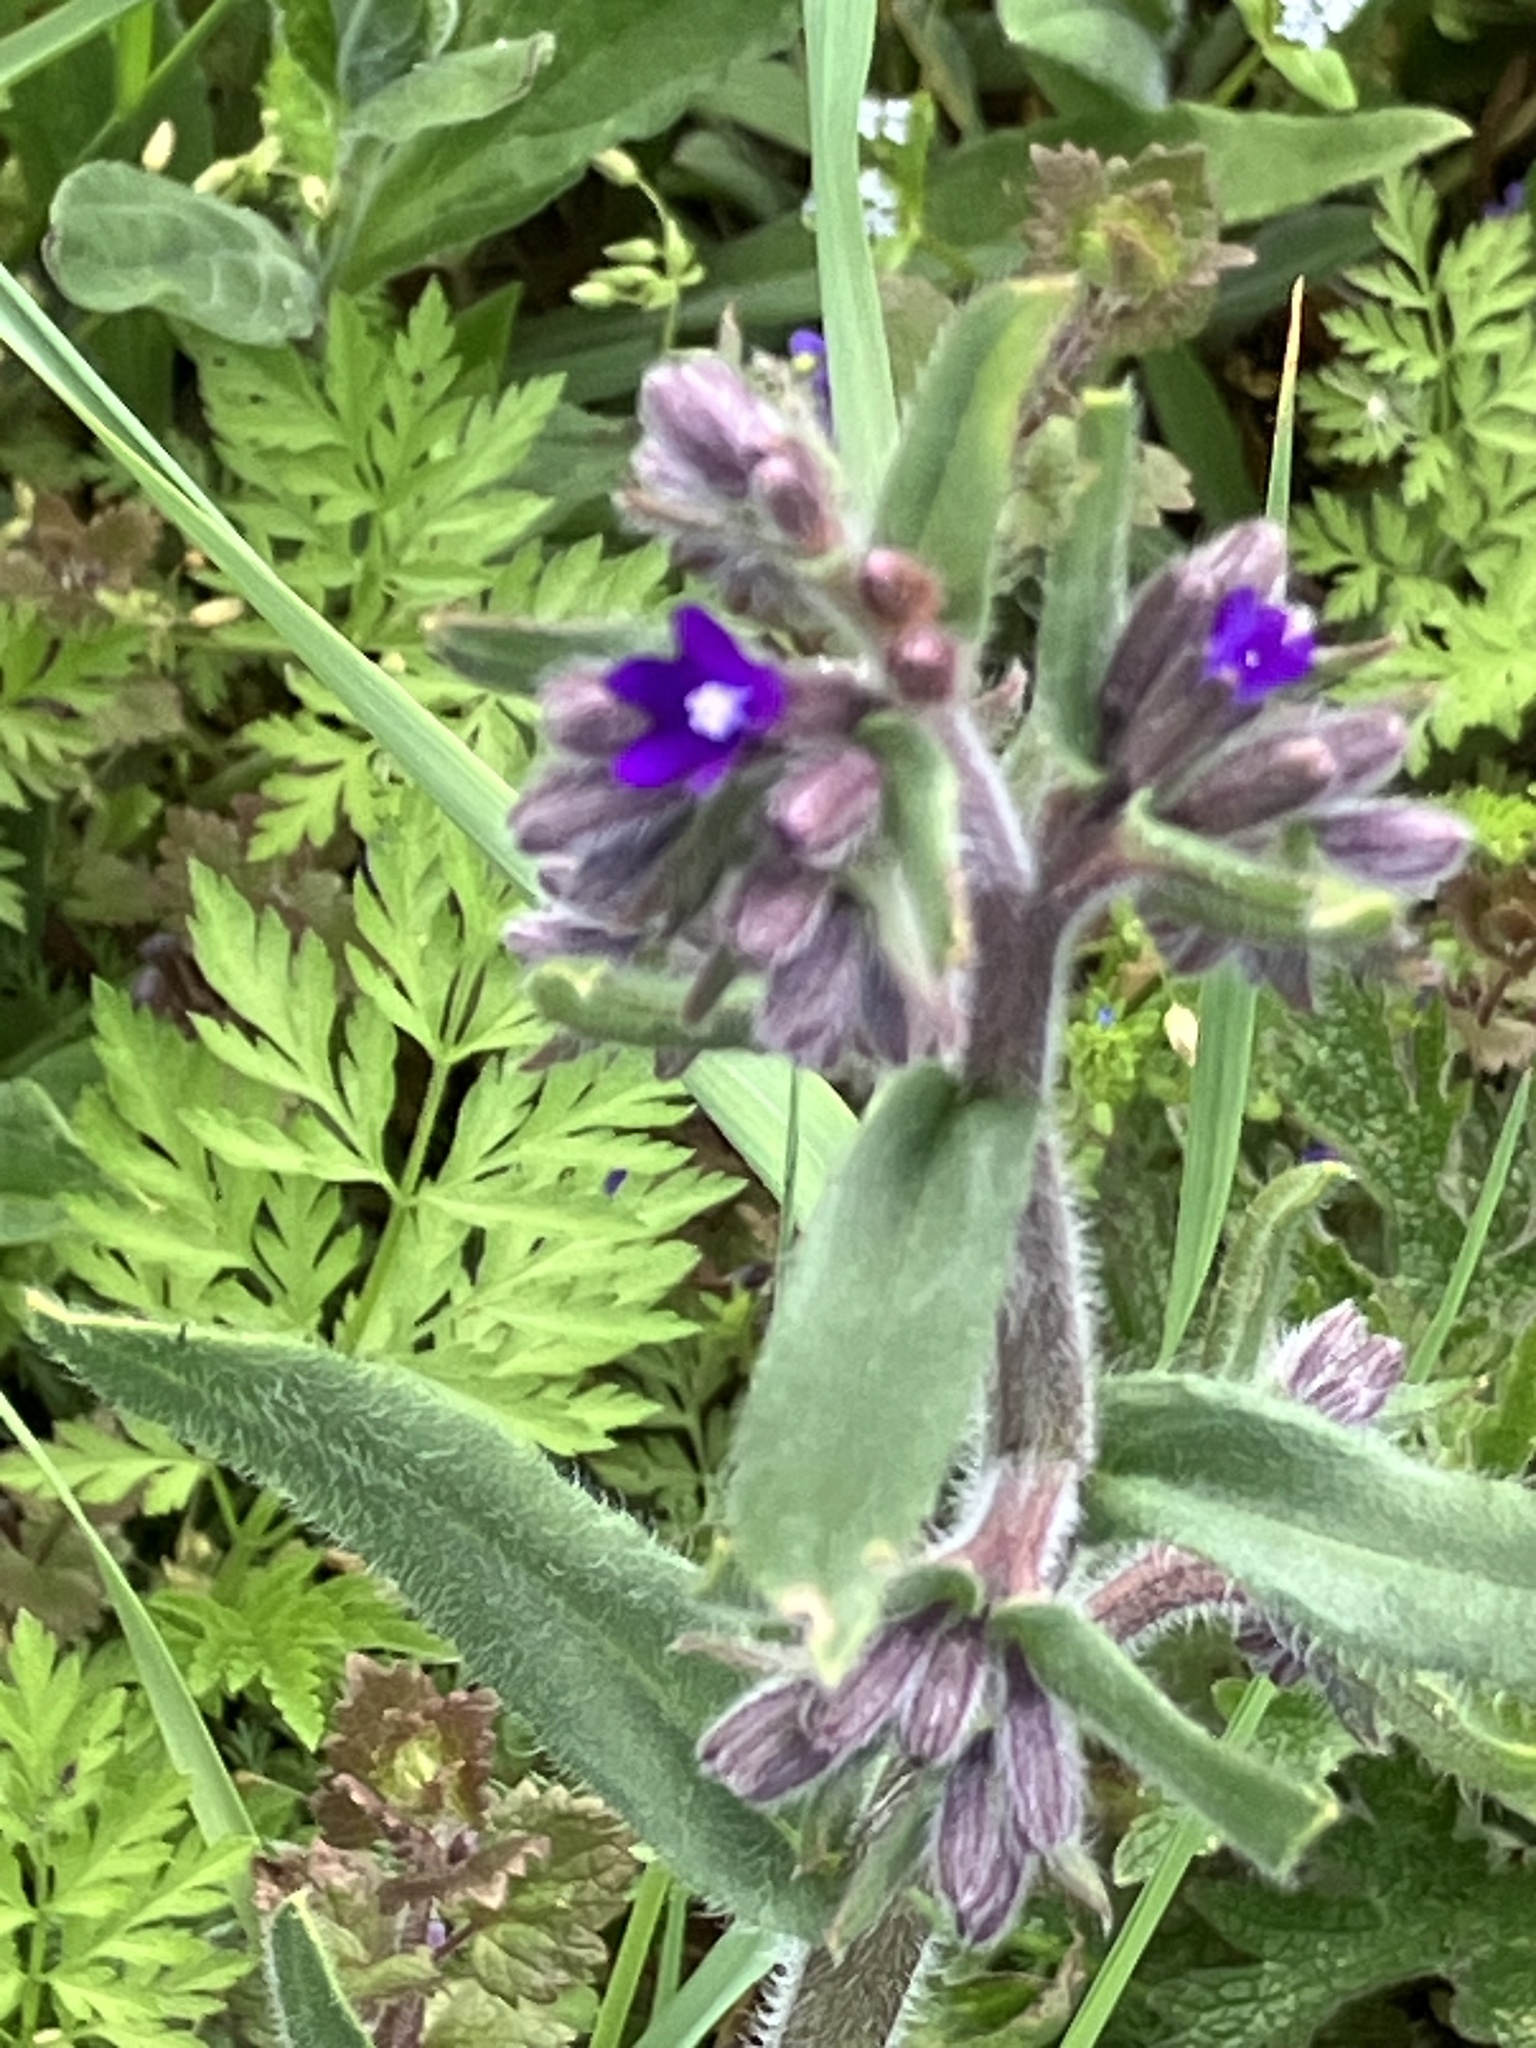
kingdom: Plantae
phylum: Tracheophyta
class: Magnoliopsida
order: Boraginales
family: Boraginaceae
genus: Anchusa
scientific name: Anchusa officinalis
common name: Alkanet
